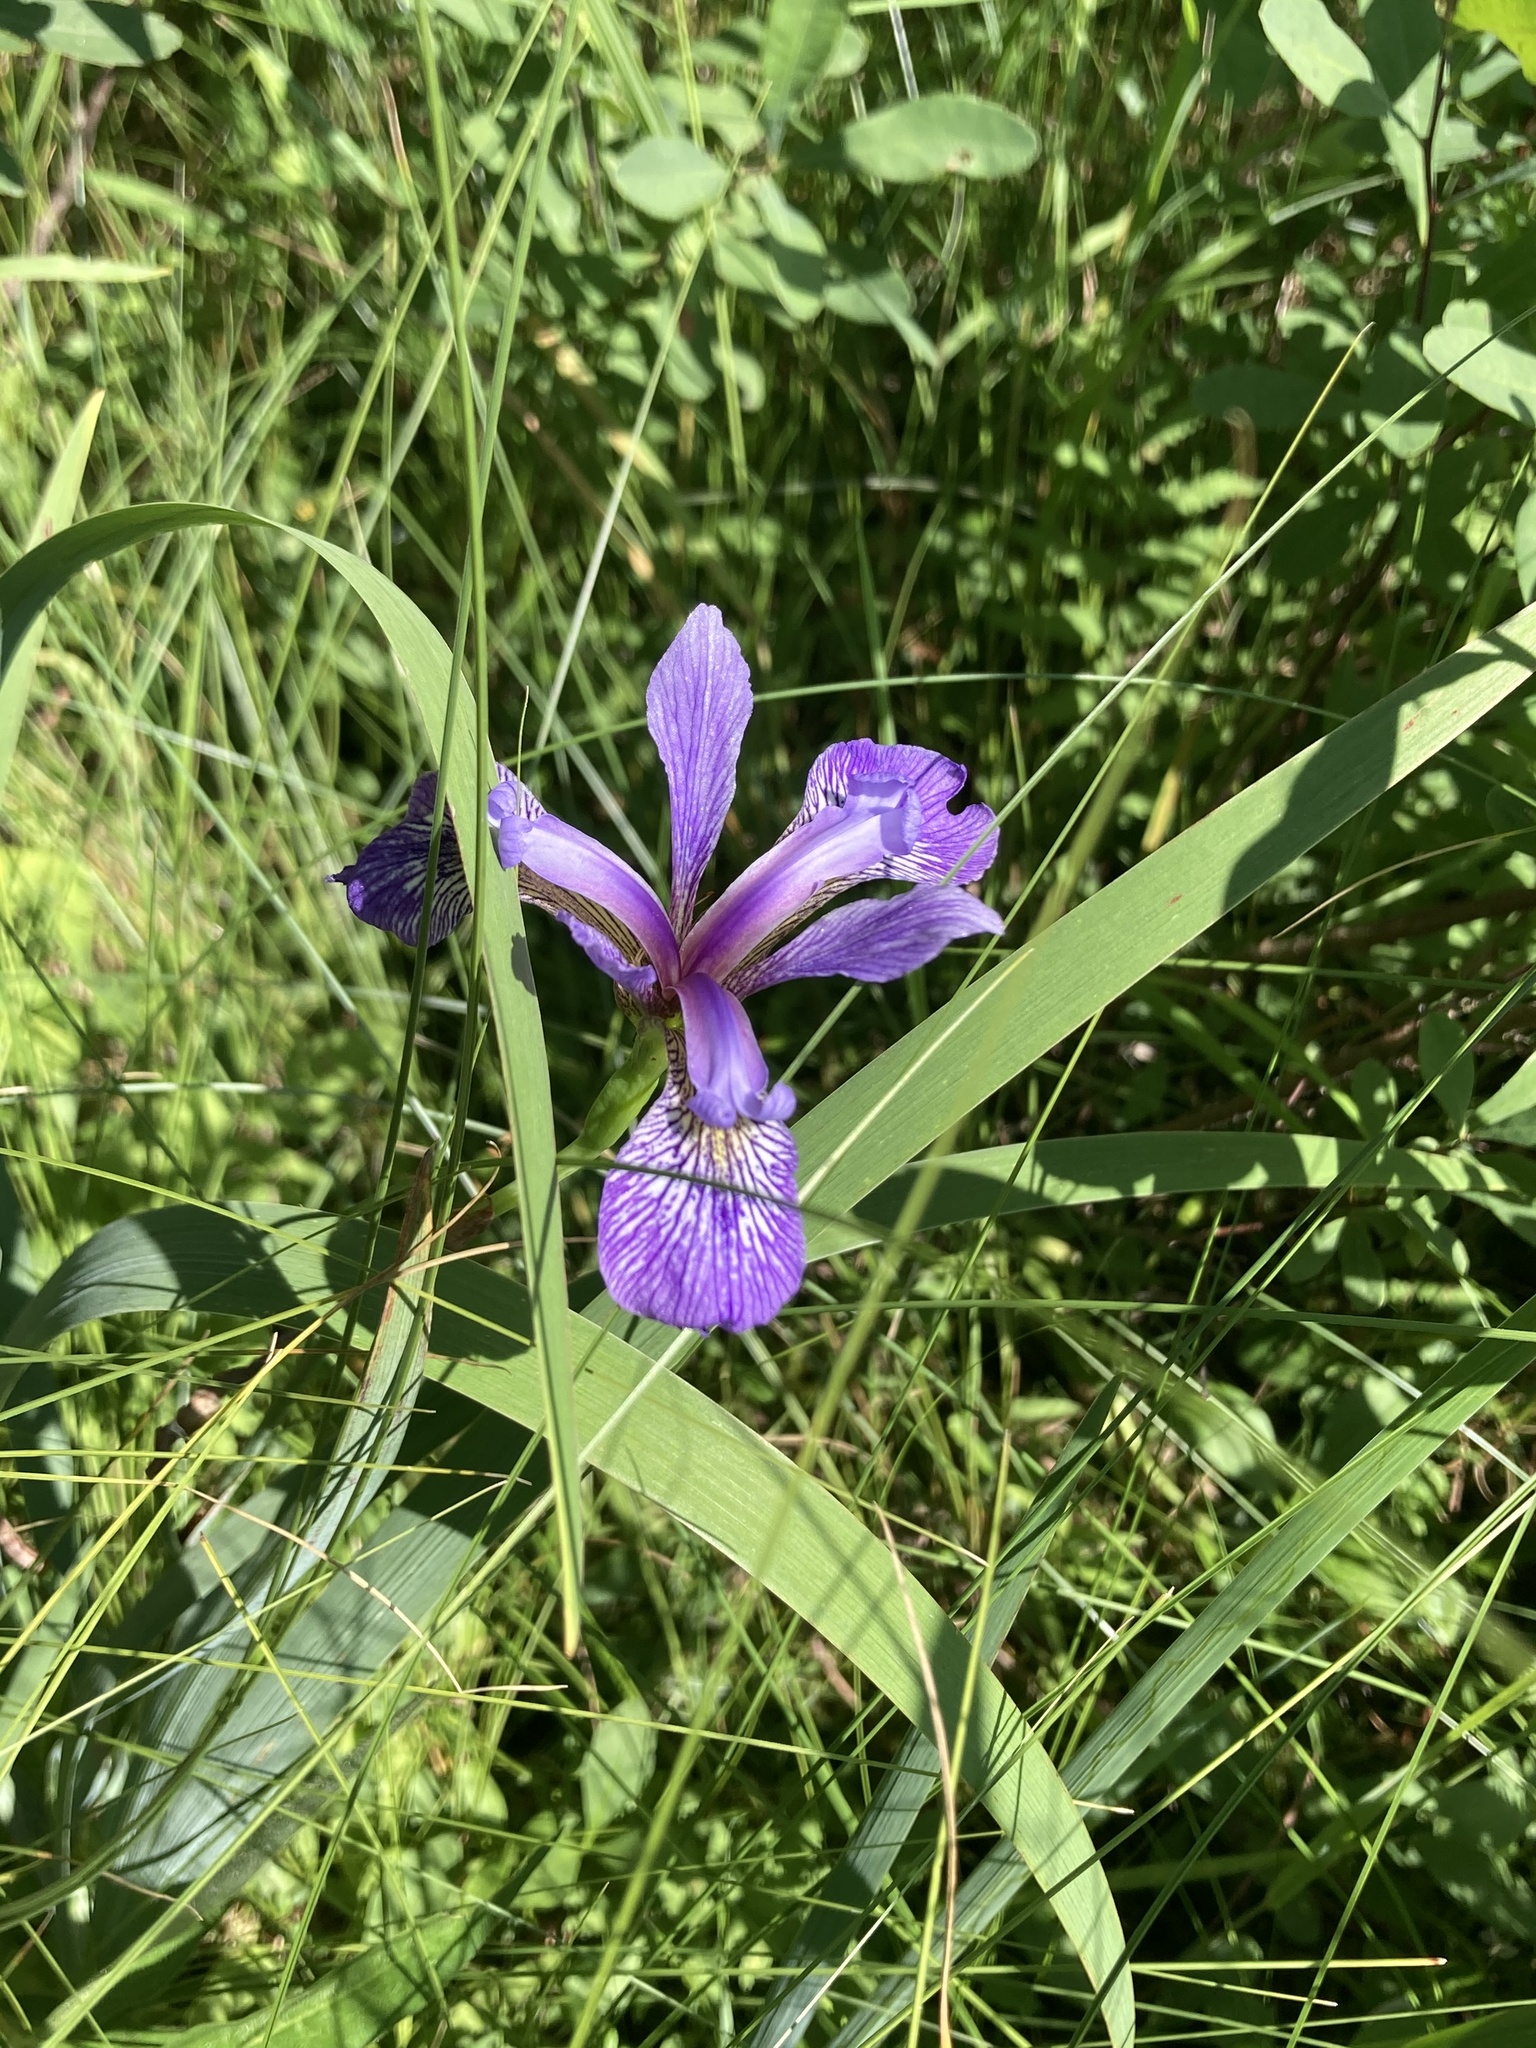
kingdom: Plantae
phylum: Tracheophyta
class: Liliopsida
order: Asparagales
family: Iridaceae
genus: Iris
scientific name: Iris versicolor
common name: Purple iris
